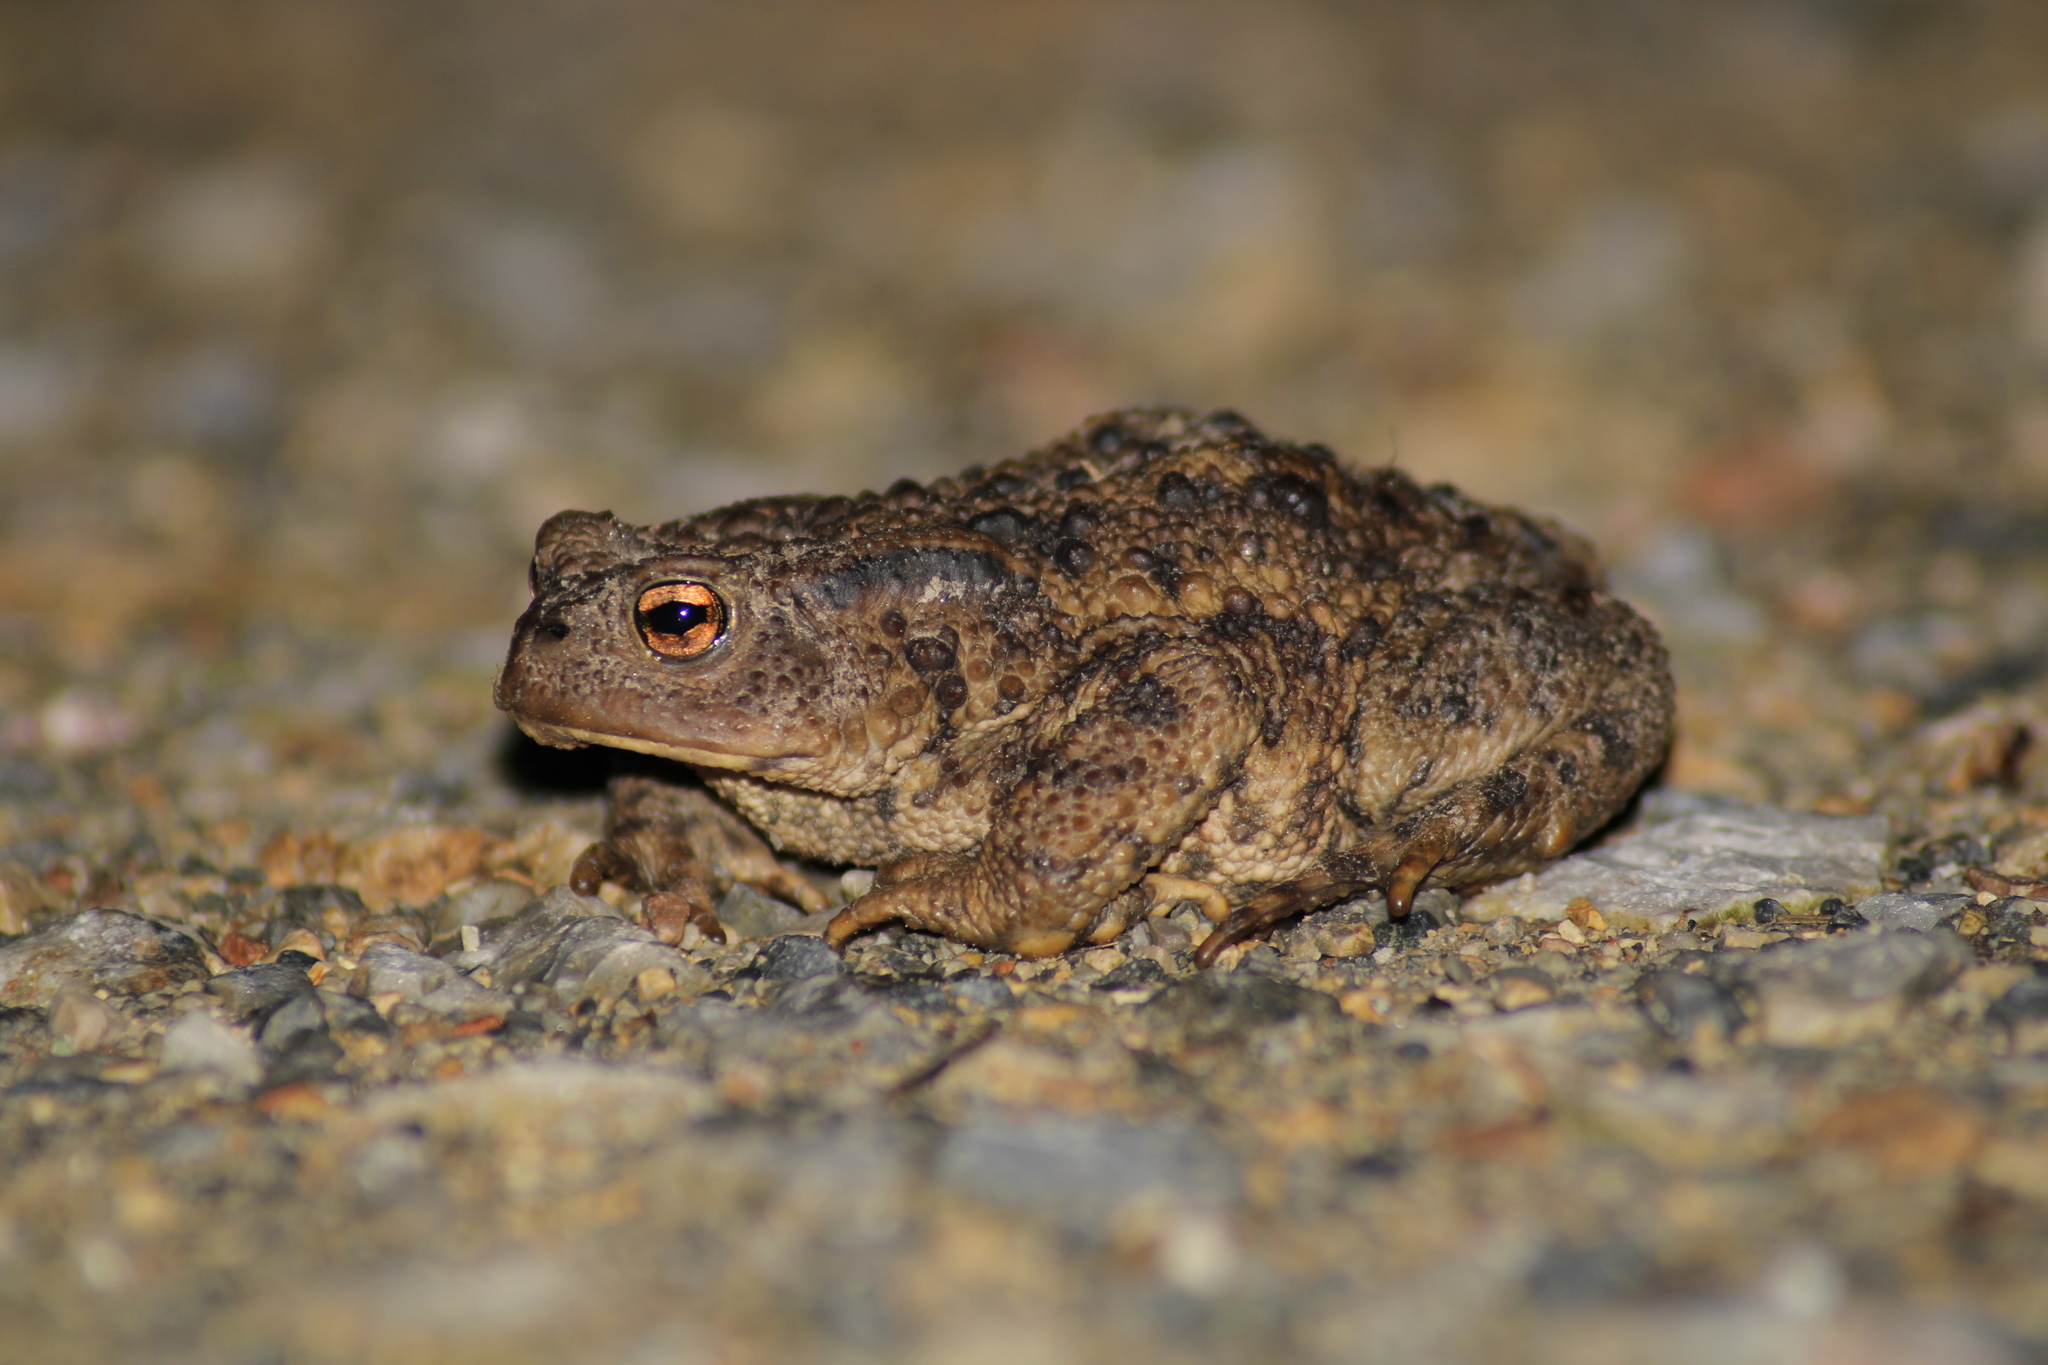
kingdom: Animalia
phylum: Chordata
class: Amphibia
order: Anura
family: Bufonidae
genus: Bufo
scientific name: Bufo bufo
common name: Common toad
